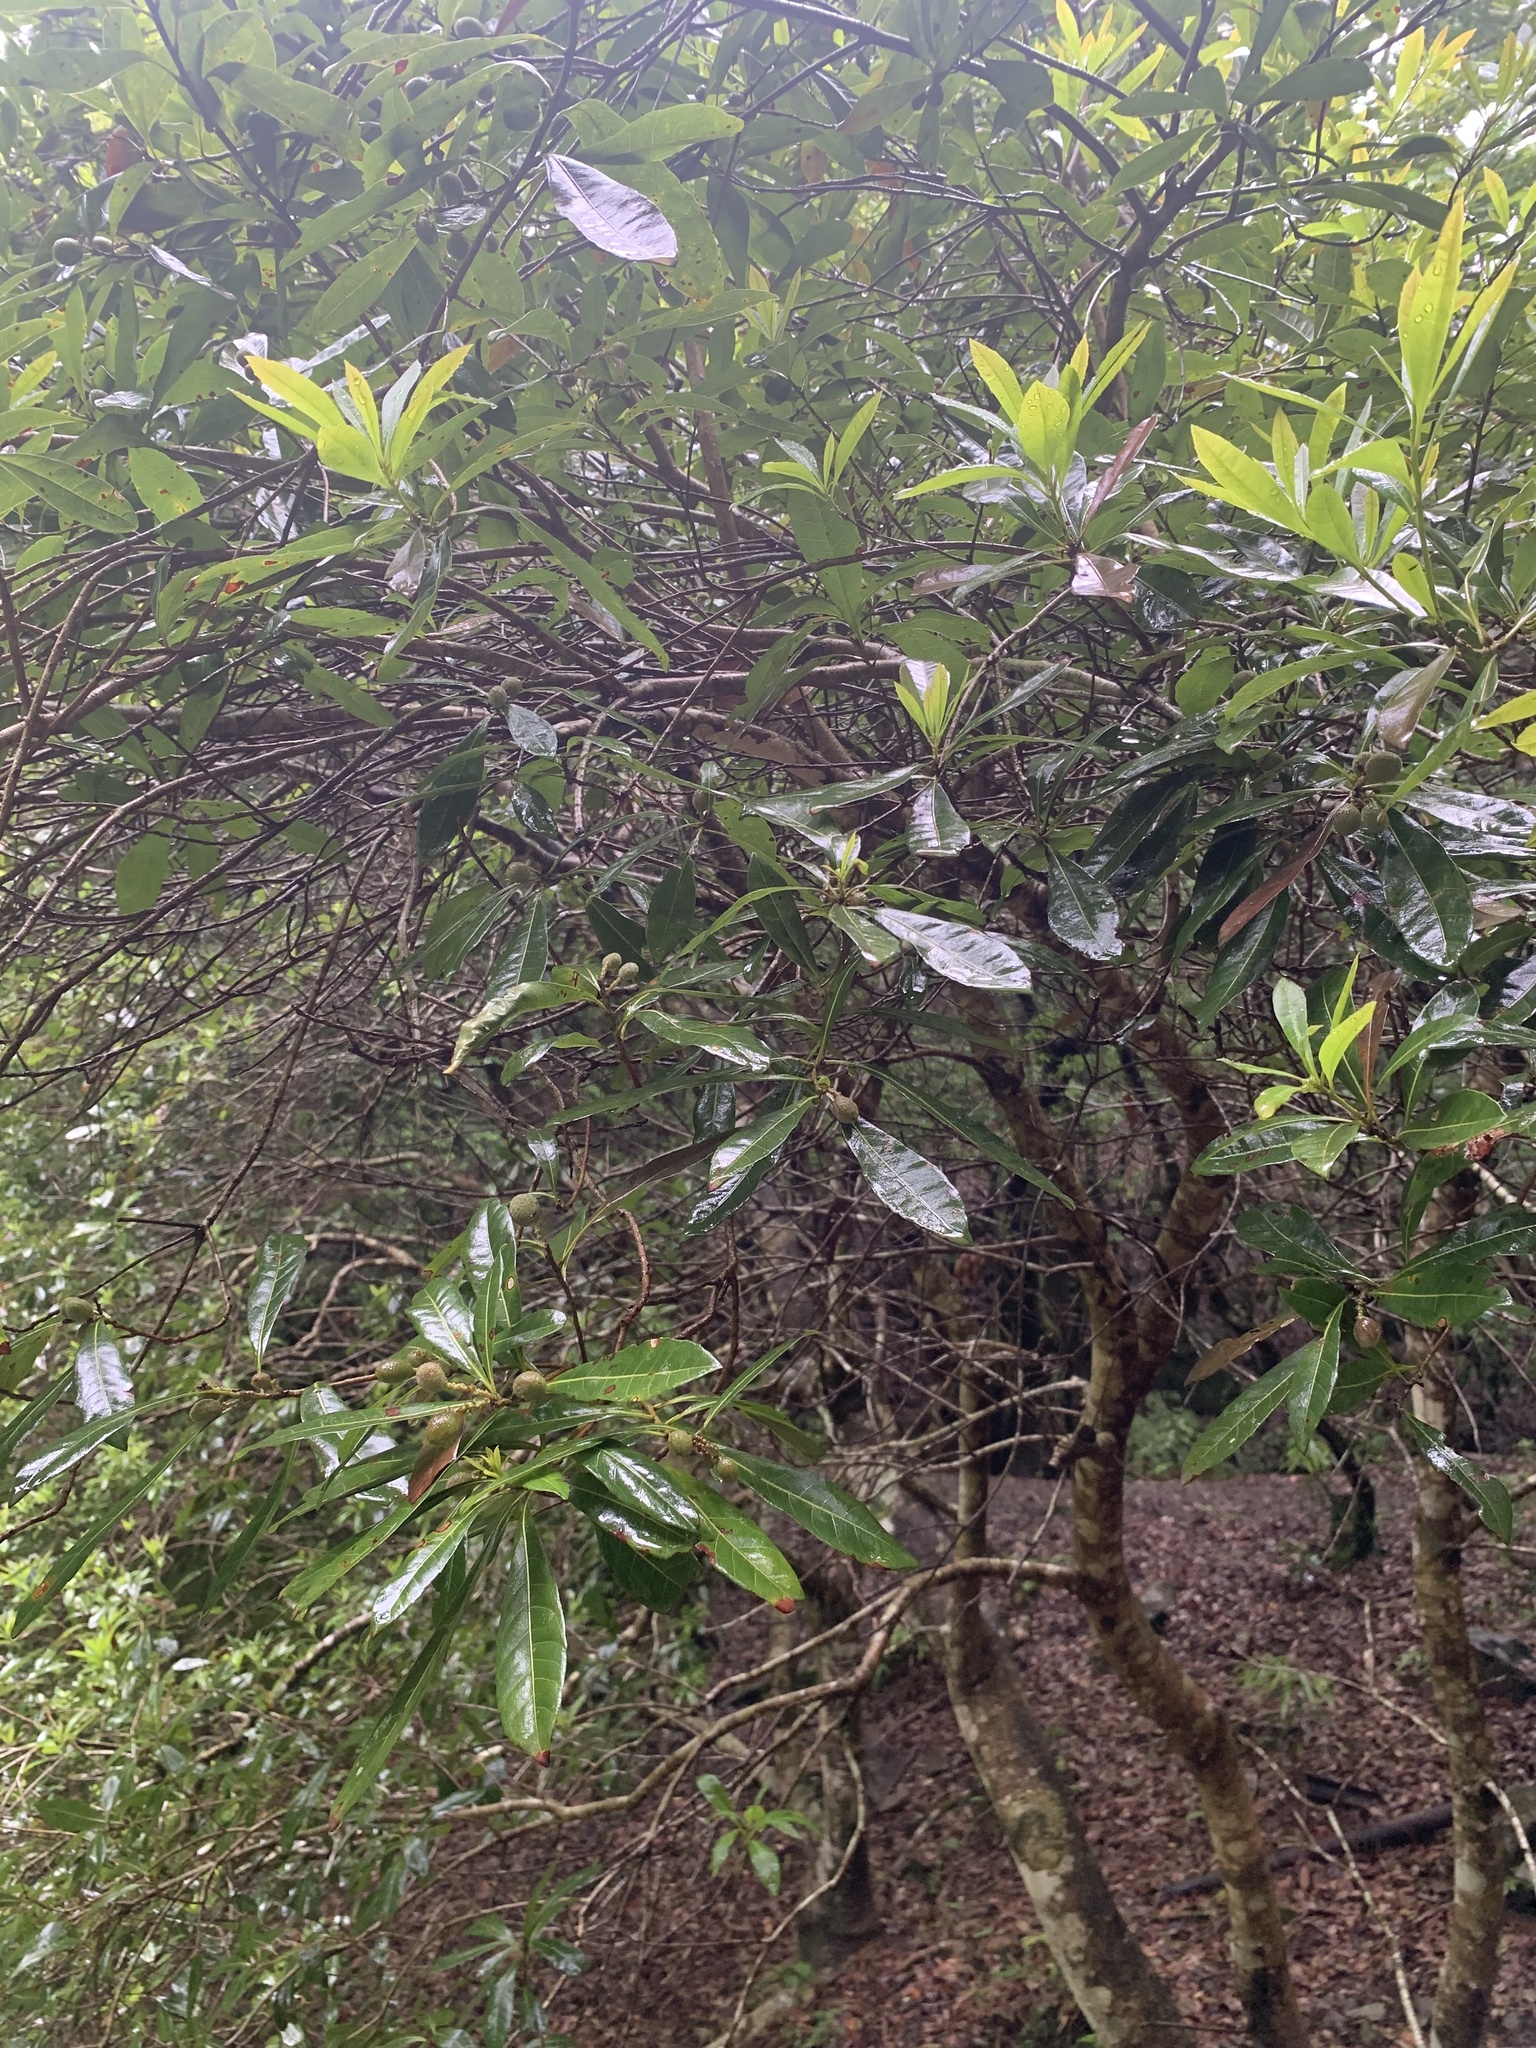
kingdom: Plantae
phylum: Tracheophyta
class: Magnoliopsida
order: Fagales
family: Myricaceae
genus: Morella
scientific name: Morella rubra
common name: Red bayberry
